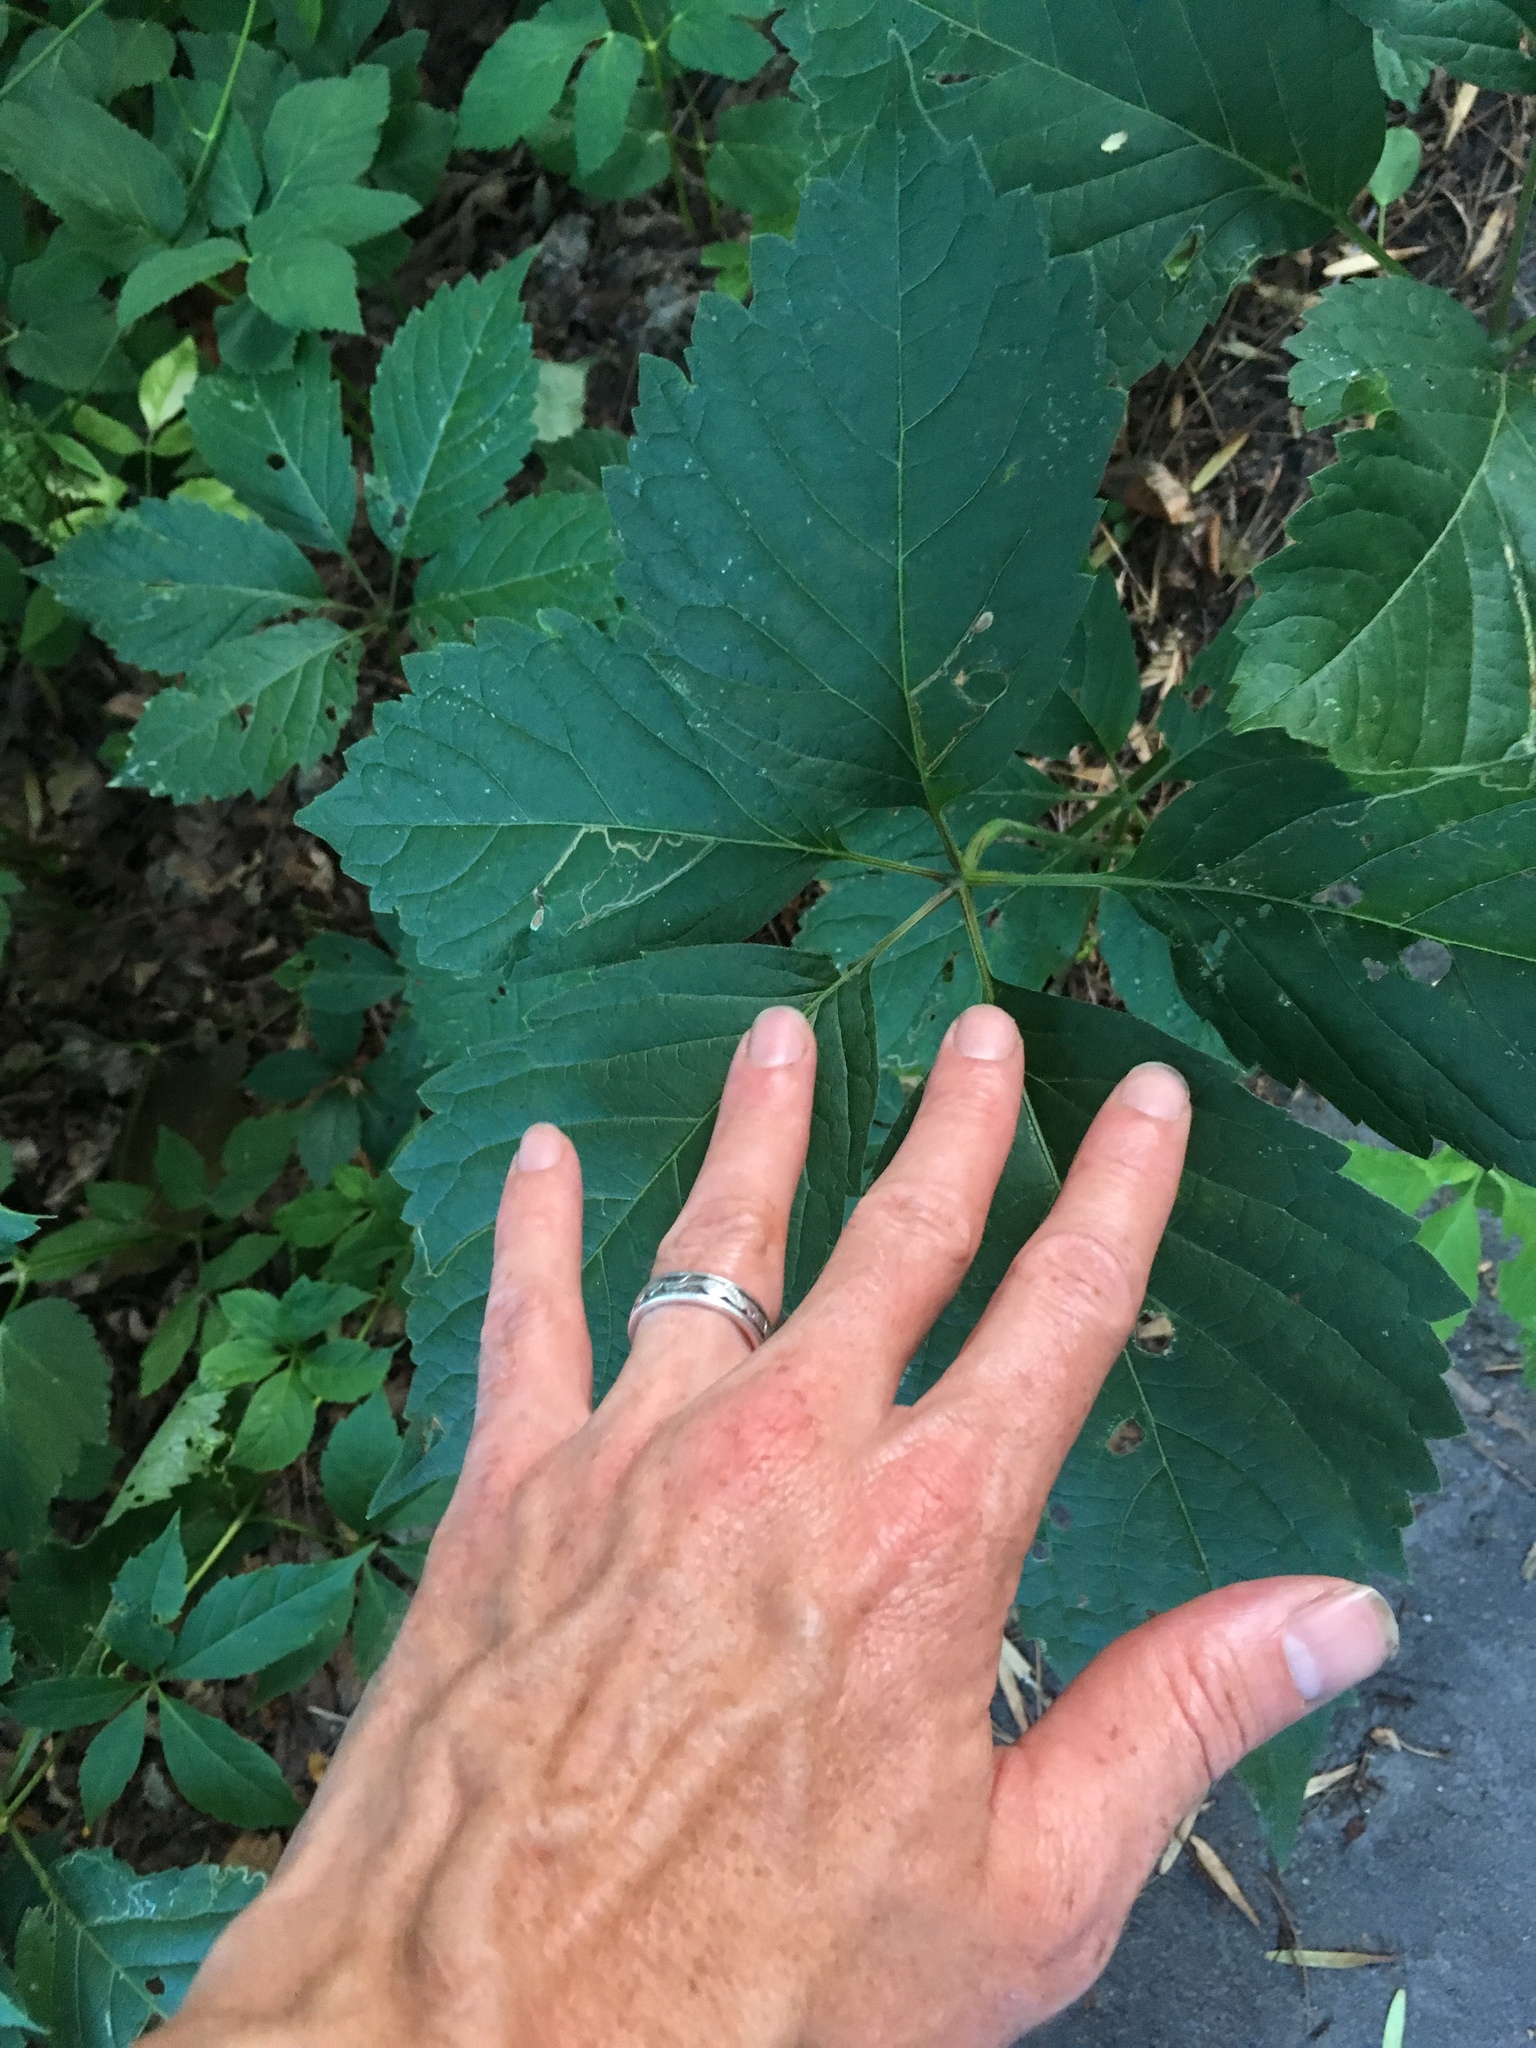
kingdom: Plantae
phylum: Tracheophyta
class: Magnoliopsida
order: Vitales
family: Vitaceae
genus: Parthenocissus
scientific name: Parthenocissus inserta
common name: False virginia-creeper
